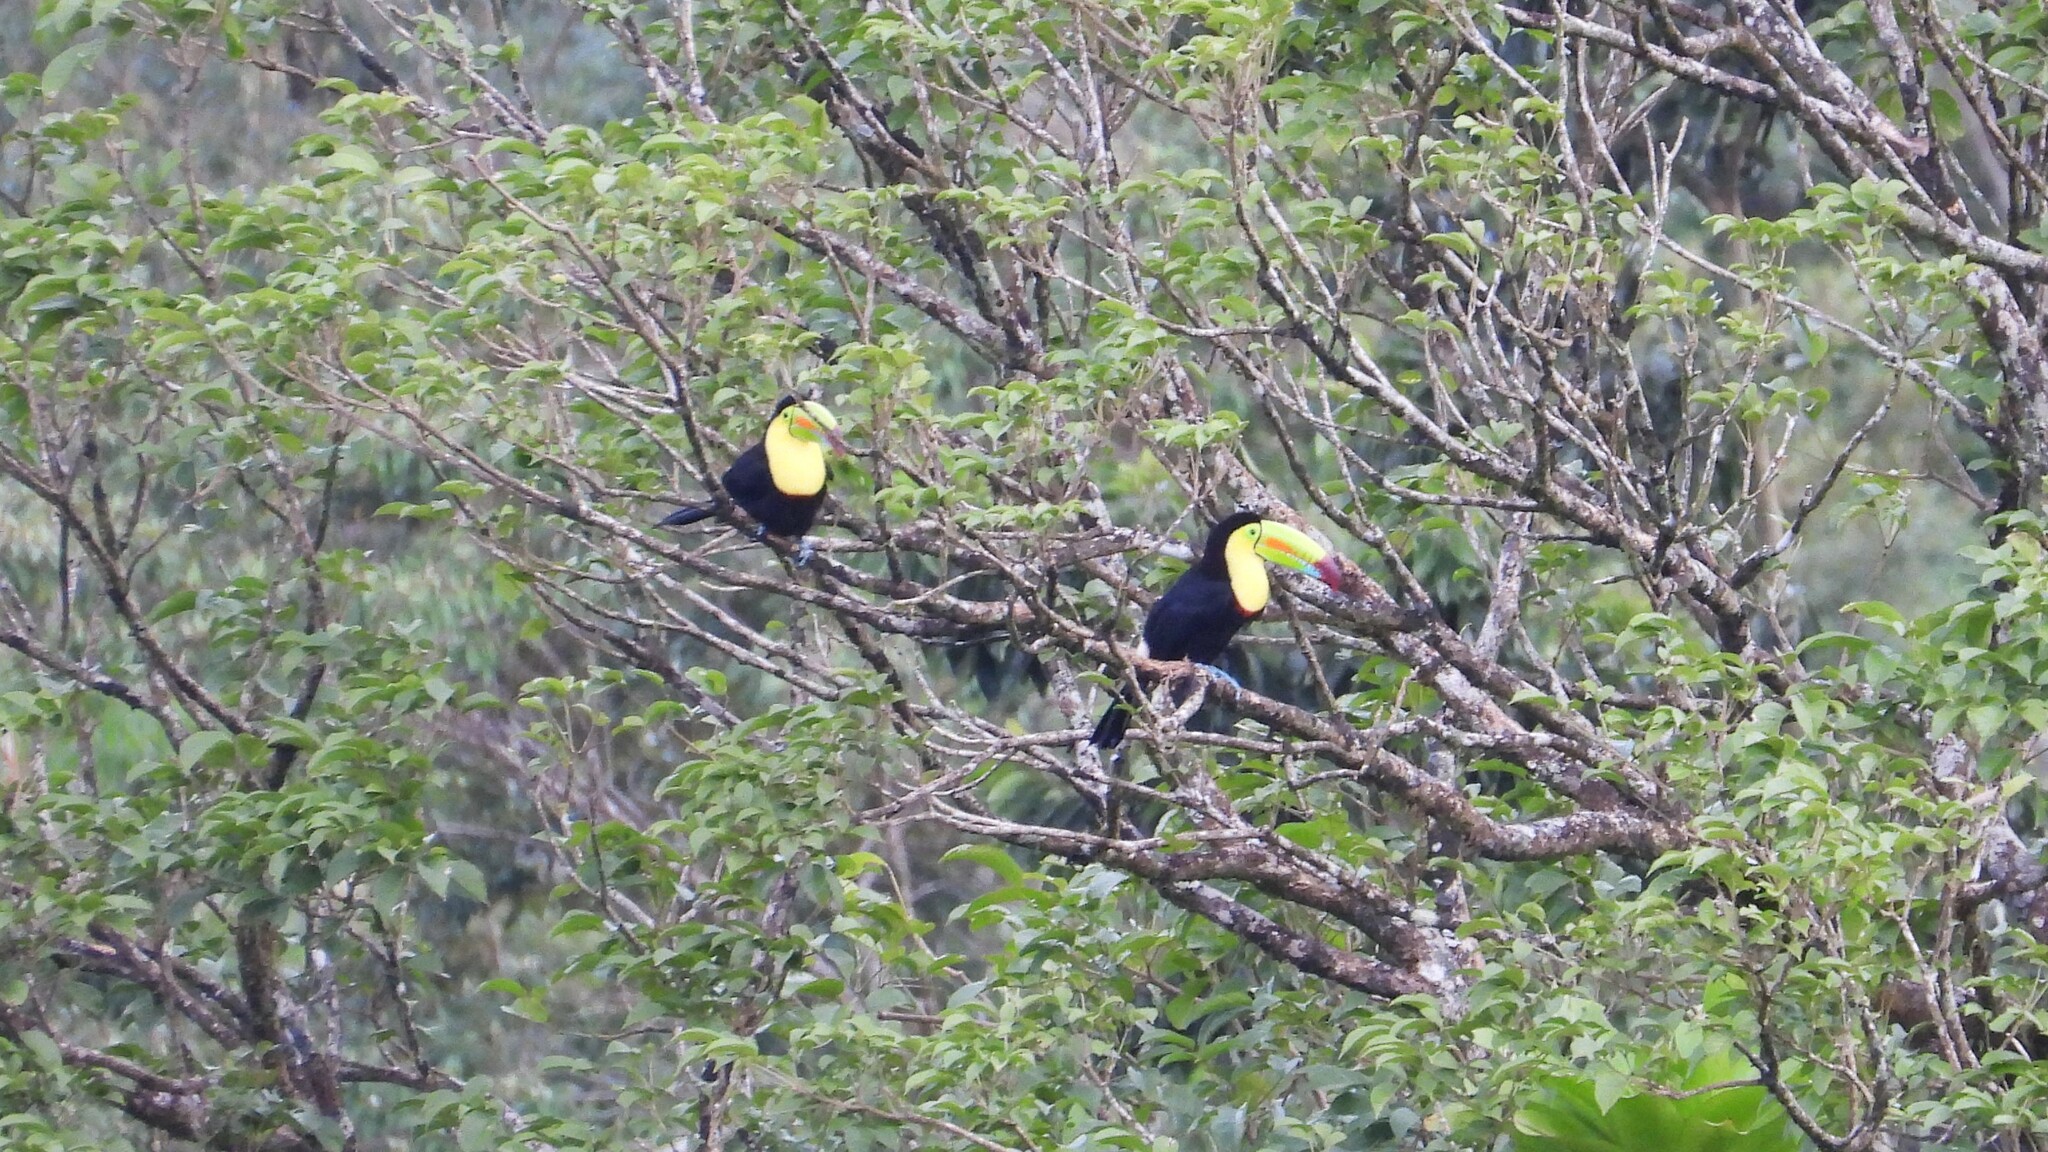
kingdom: Animalia
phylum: Chordata
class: Aves
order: Piciformes
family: Ramphastidae
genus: Ramphastos
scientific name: Ramphastos sulfuratus
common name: Keel-billed toucan
